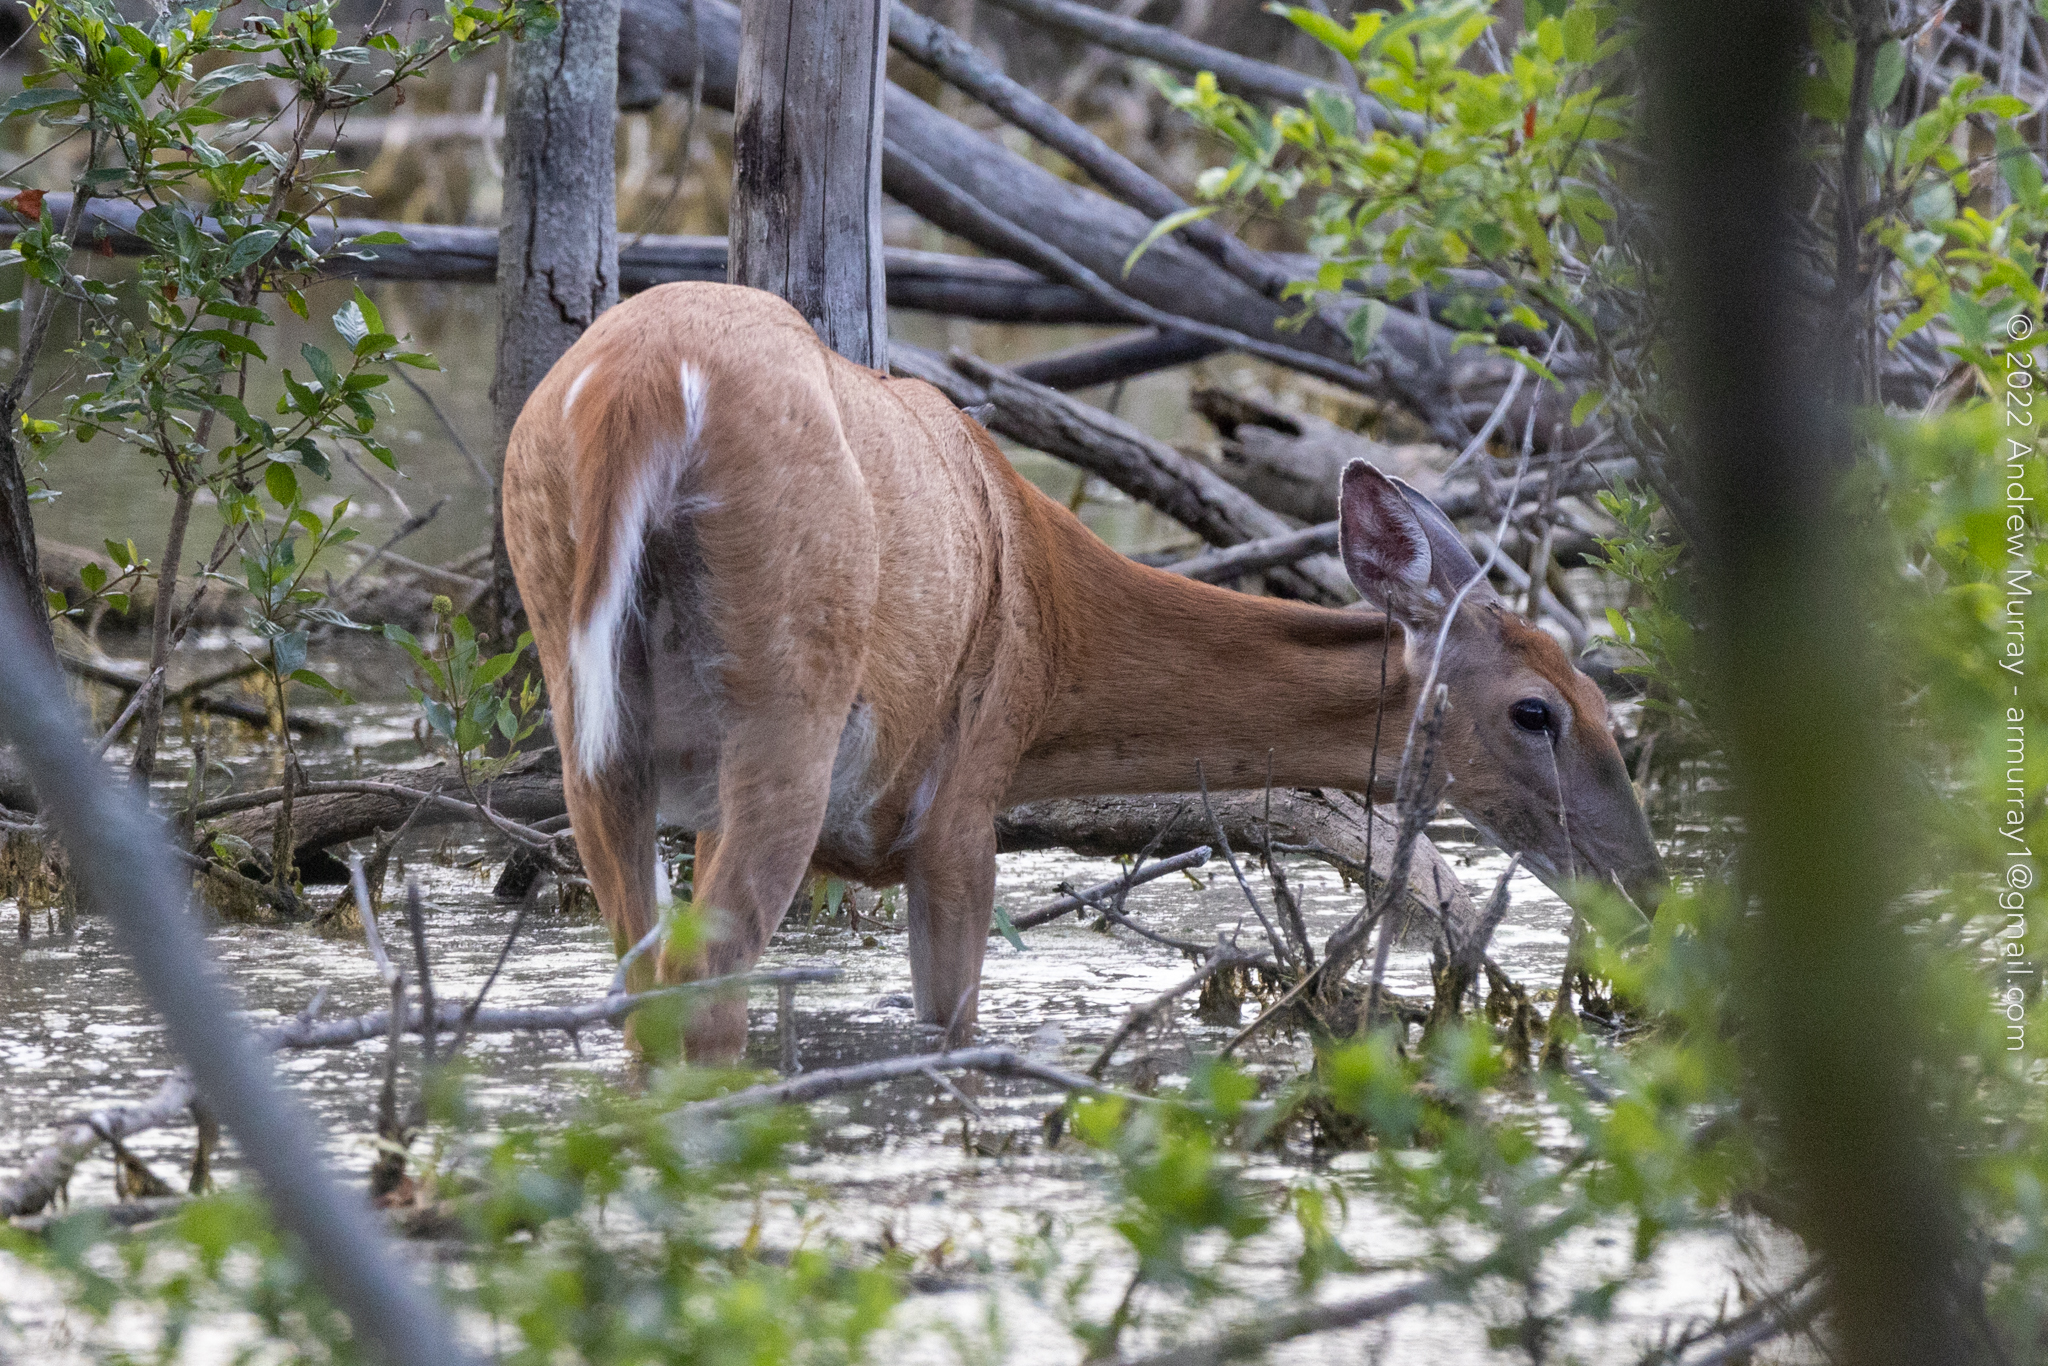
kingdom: Animalia
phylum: Chordata
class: Mammalia
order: Artiodactyla
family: Cervidae
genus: Odocoileus
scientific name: Odocoileus virginianus
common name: White-tailed deer
